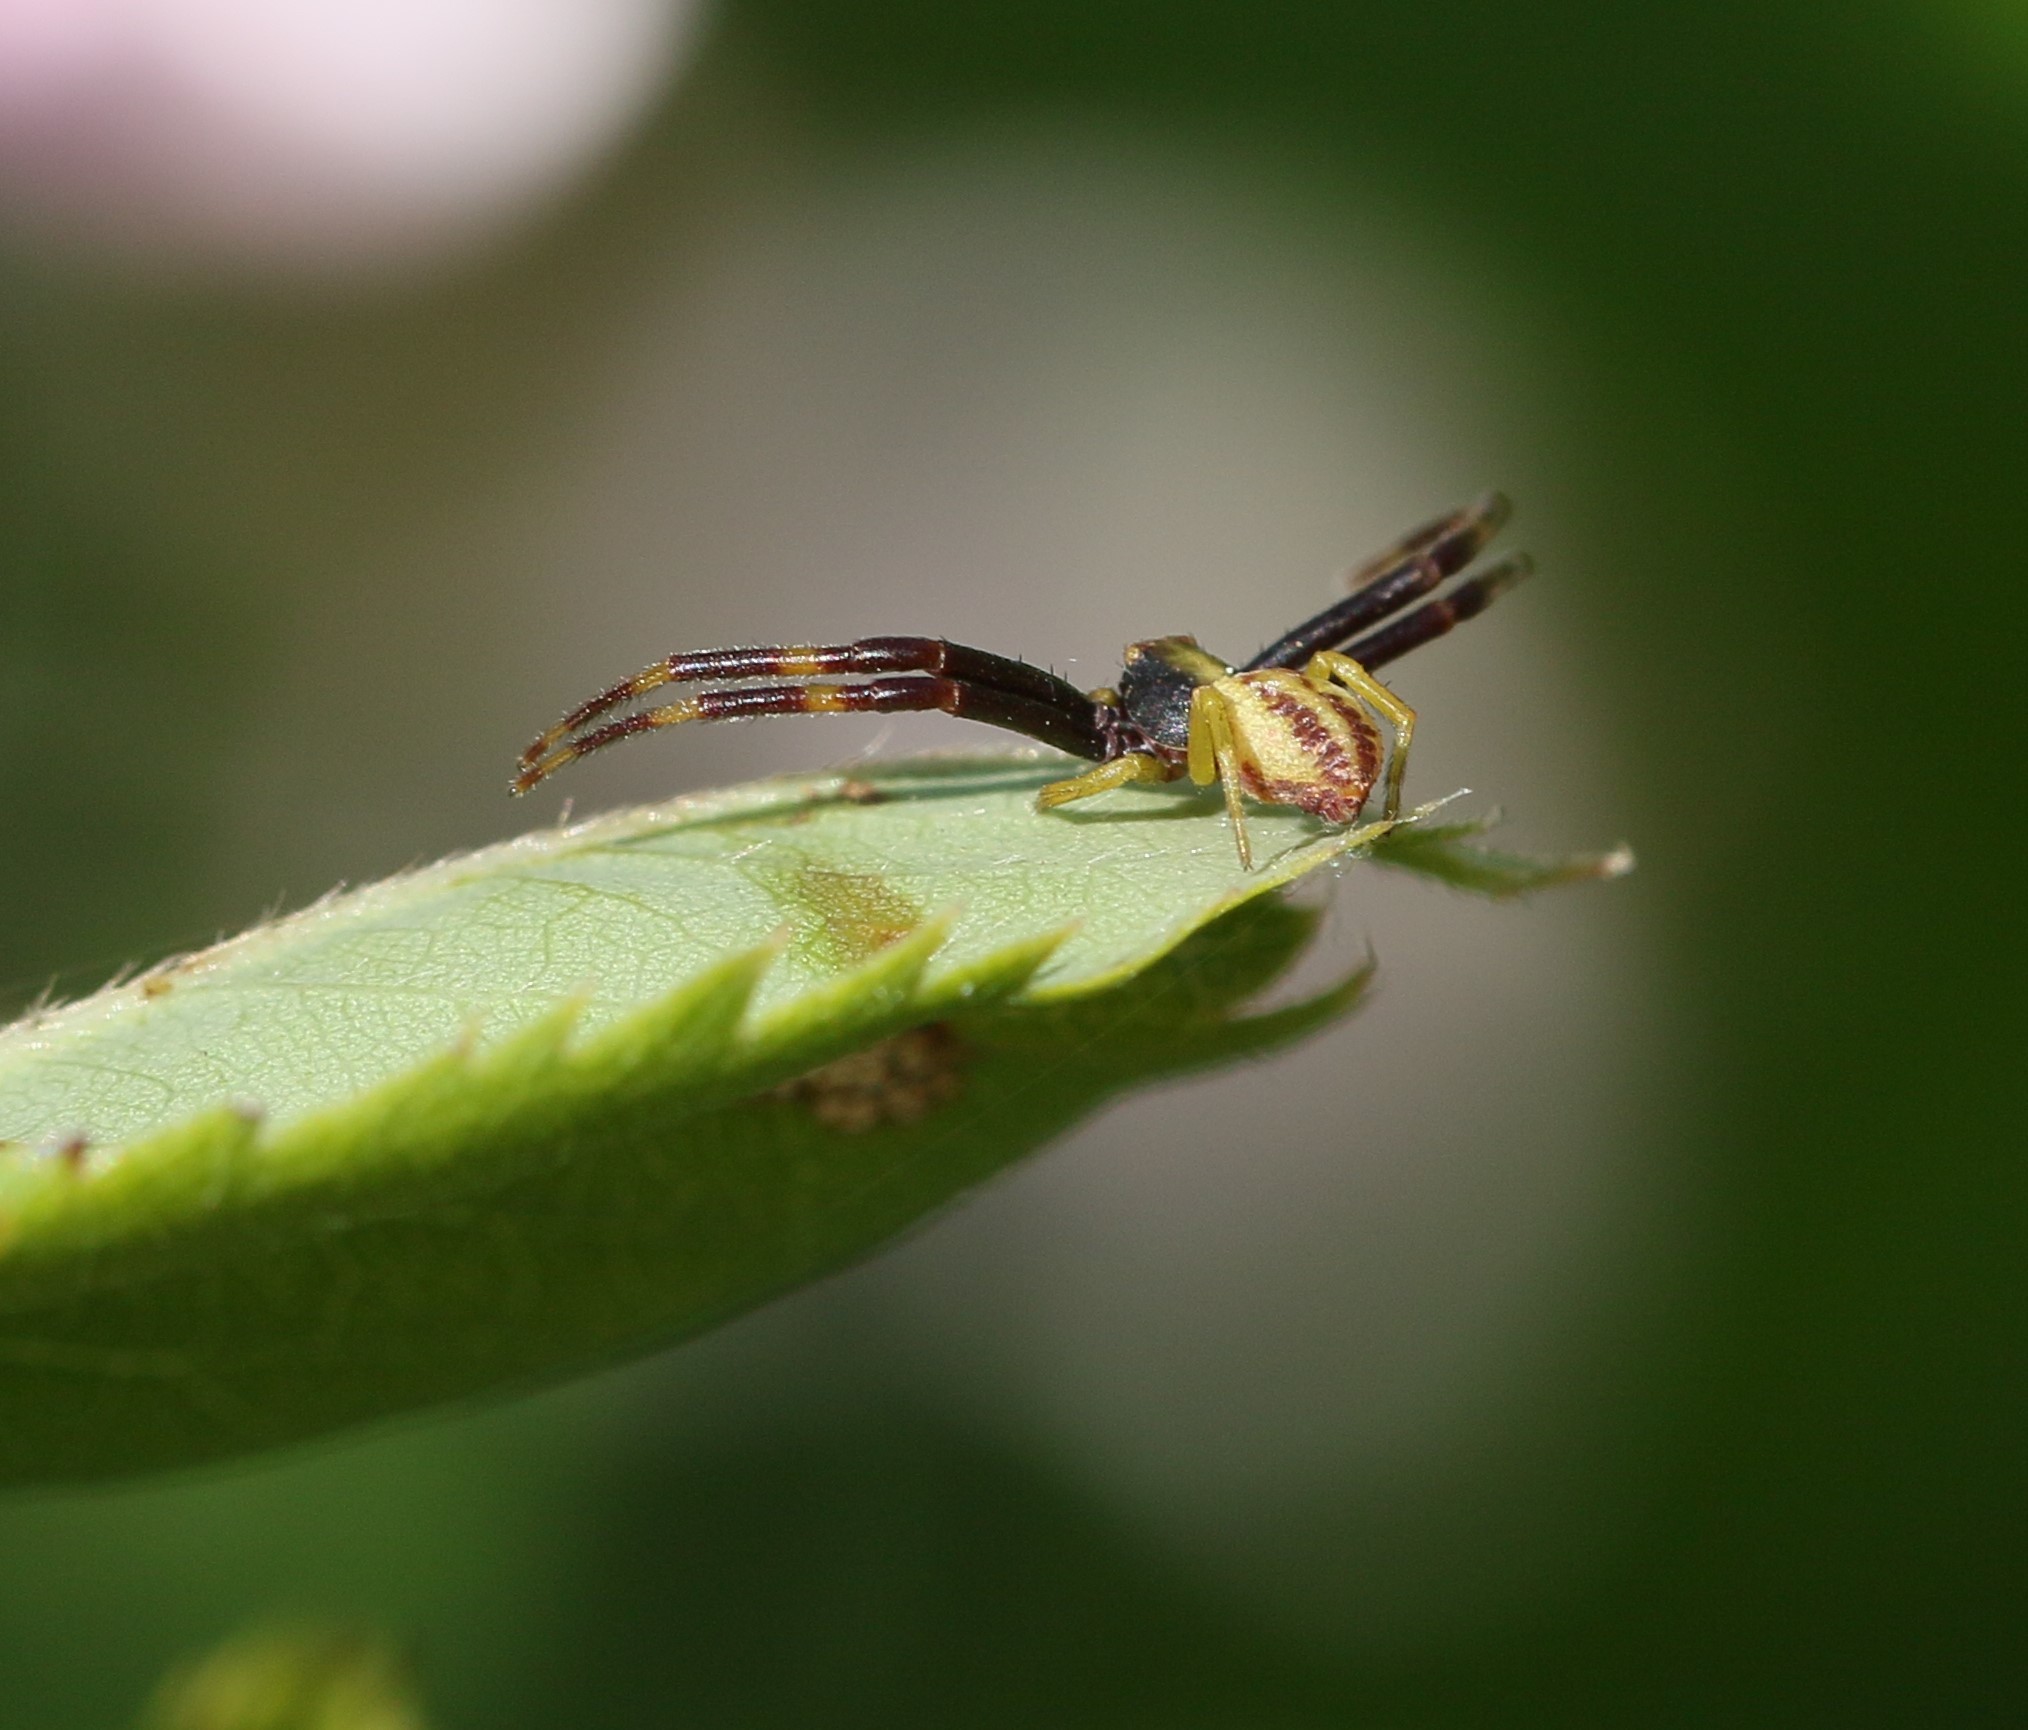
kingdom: Animalia
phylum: Arthropoda
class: Arachnida
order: Araneae
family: Thomisidae
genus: Misumena
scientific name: Misumena vatia
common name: Goldenrod crab spider
